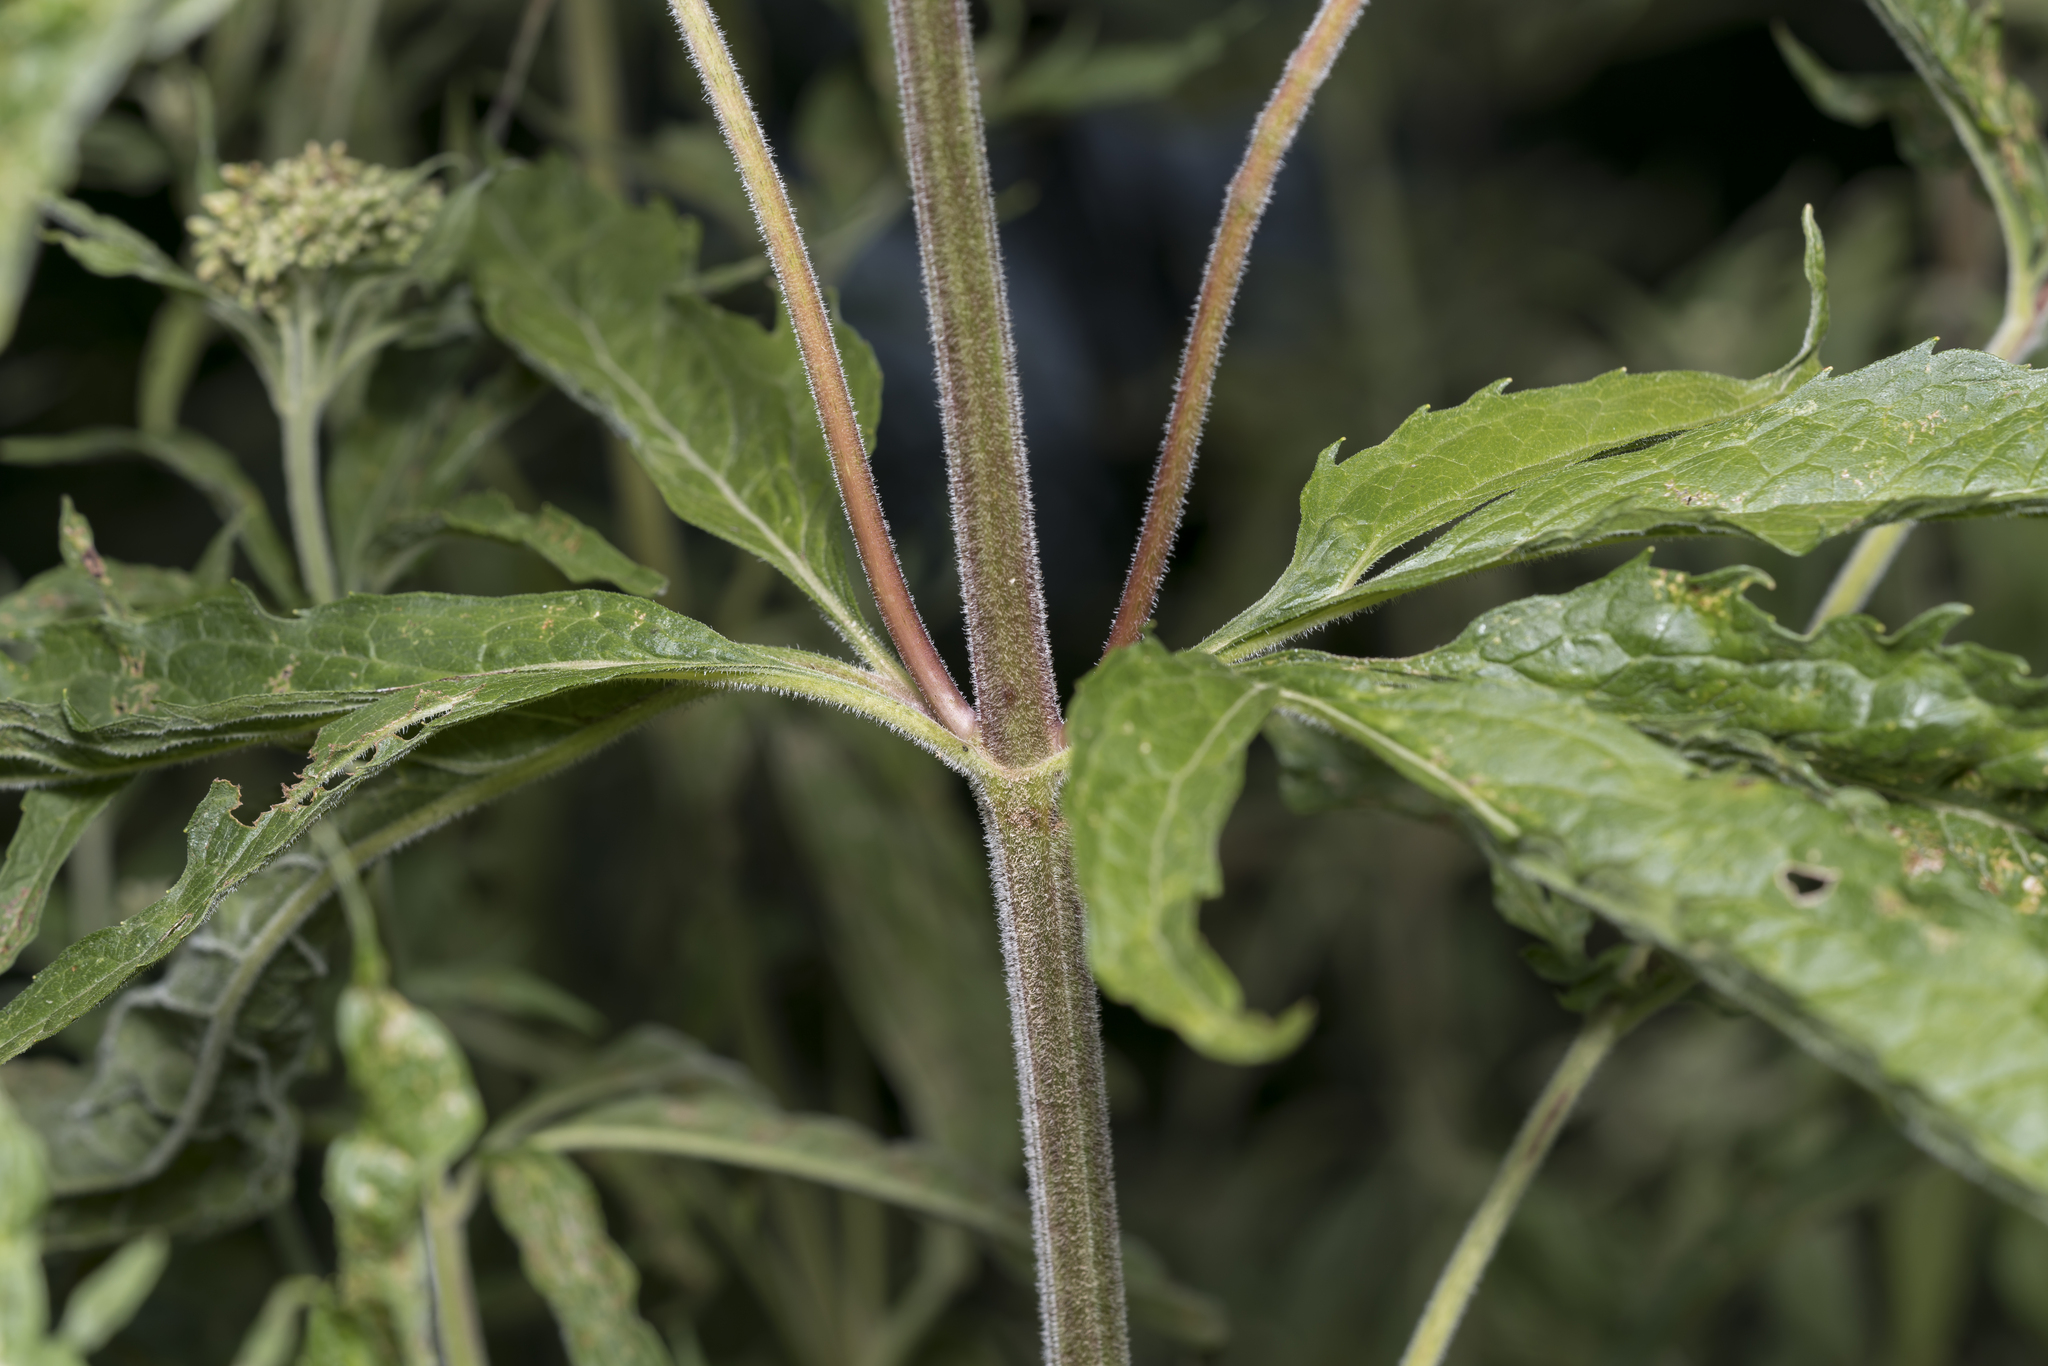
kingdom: Plantae
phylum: Tracheophyta
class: Magnoliopsida
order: Asterales
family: Asteraceae
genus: Eupatorium
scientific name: Eupatorium cannabinum
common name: Hemp-agrimony
